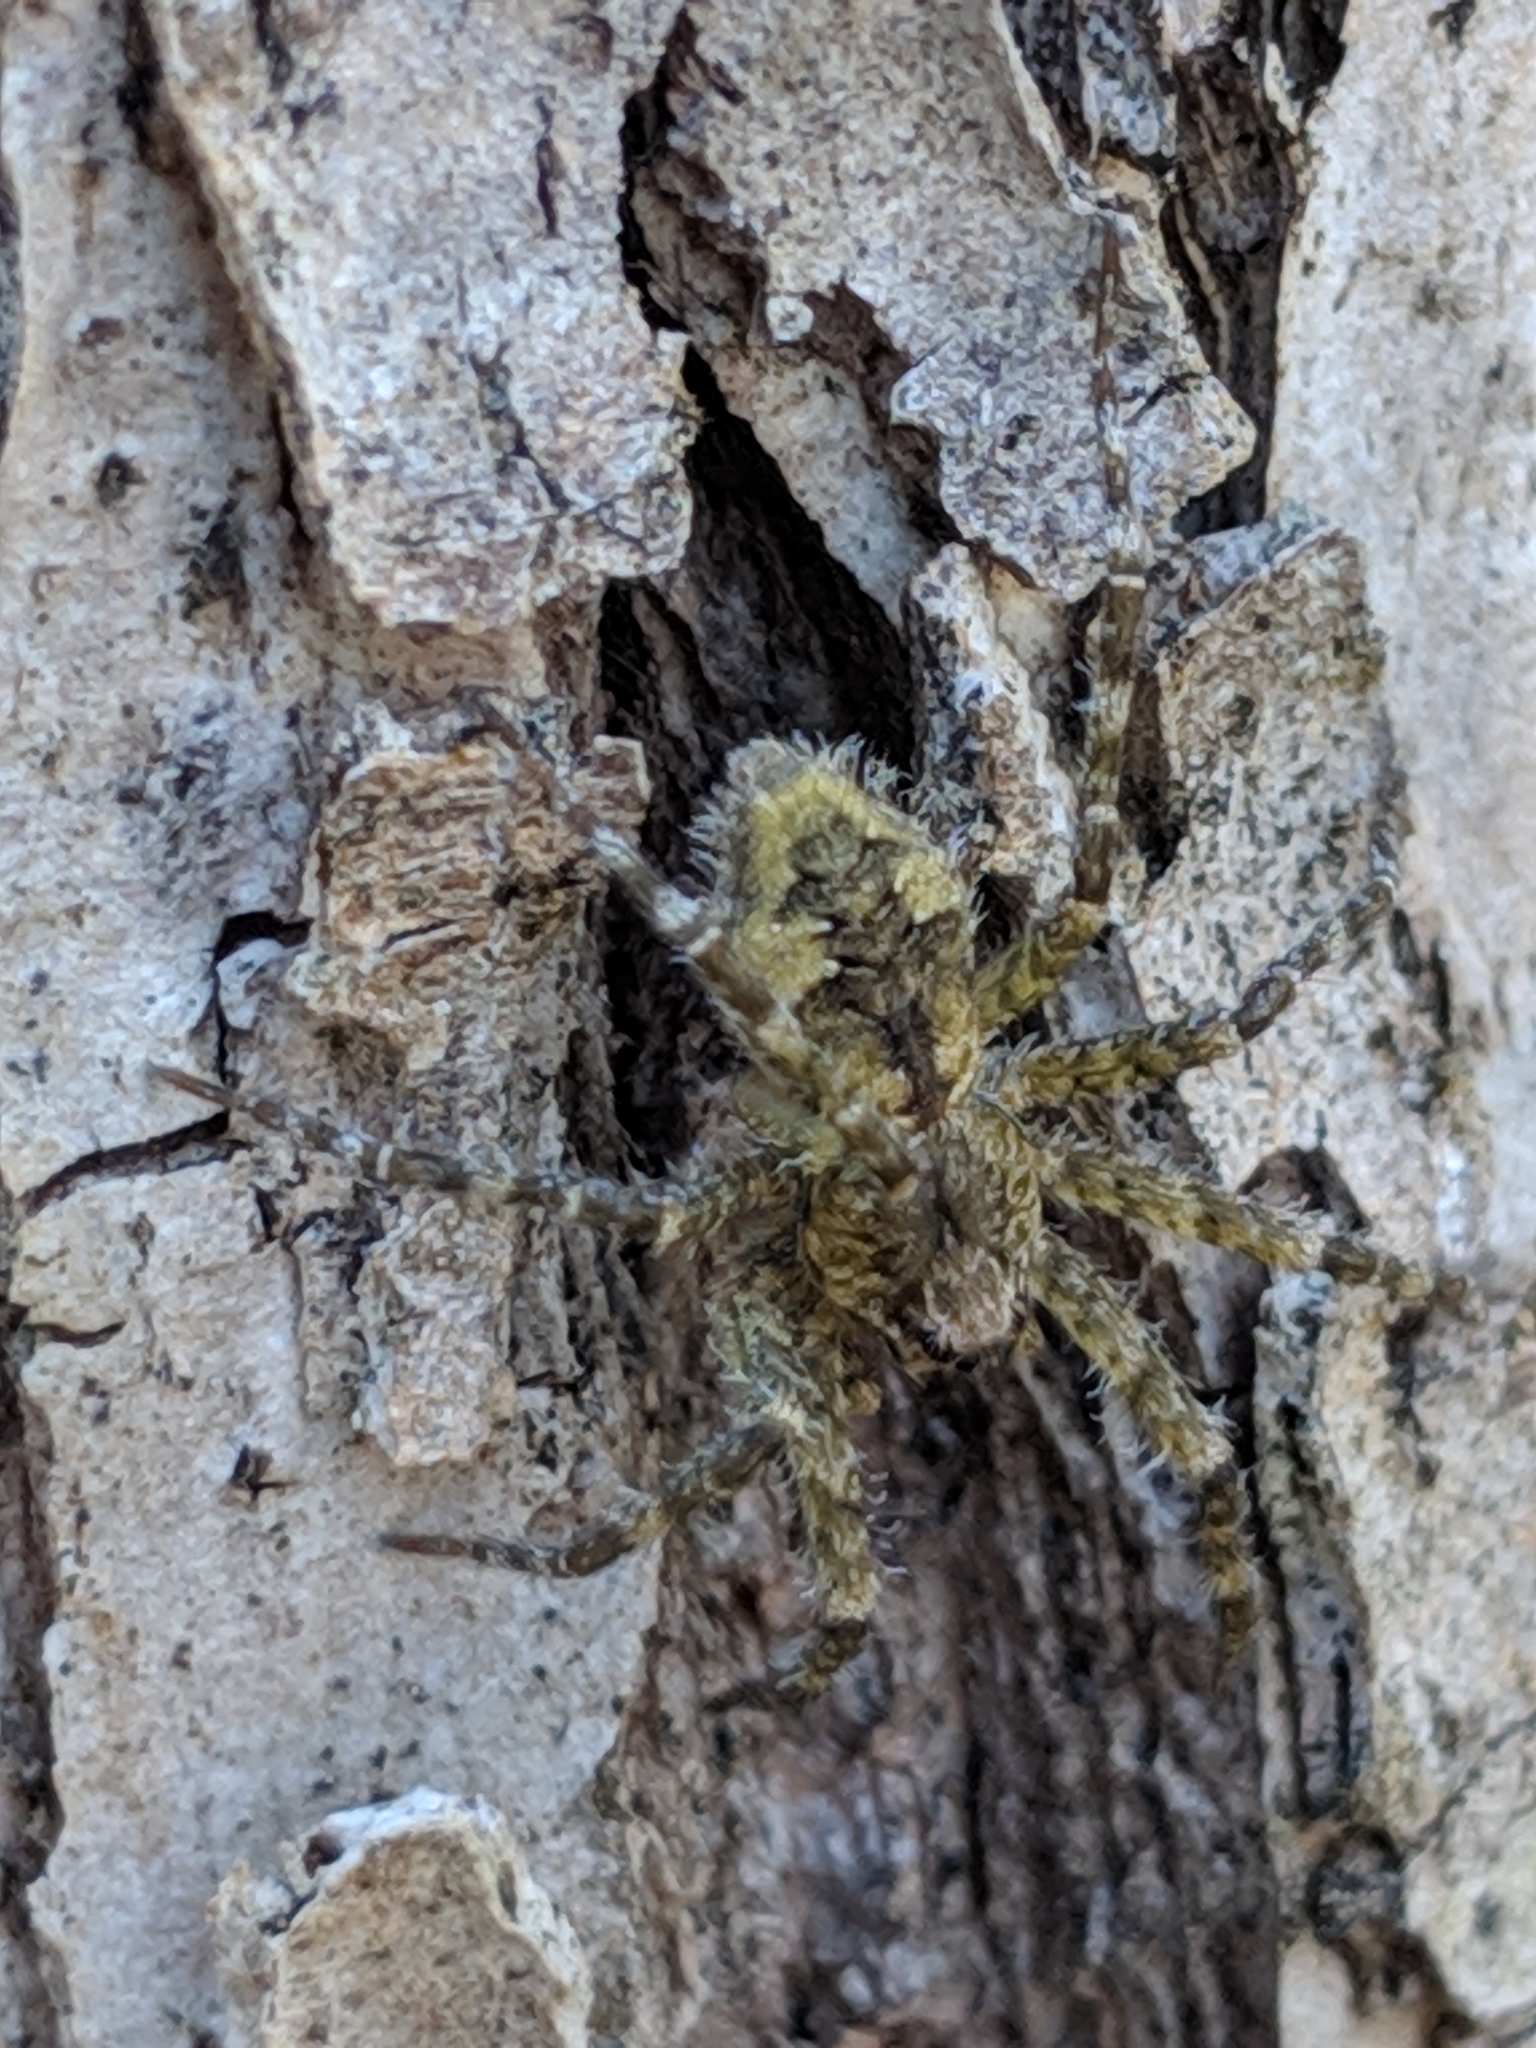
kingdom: Animalia
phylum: Arthropoda
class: Arachnida
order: Araneae
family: Pisauridae
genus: Dolomedes
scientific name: Dolomedes albineus
